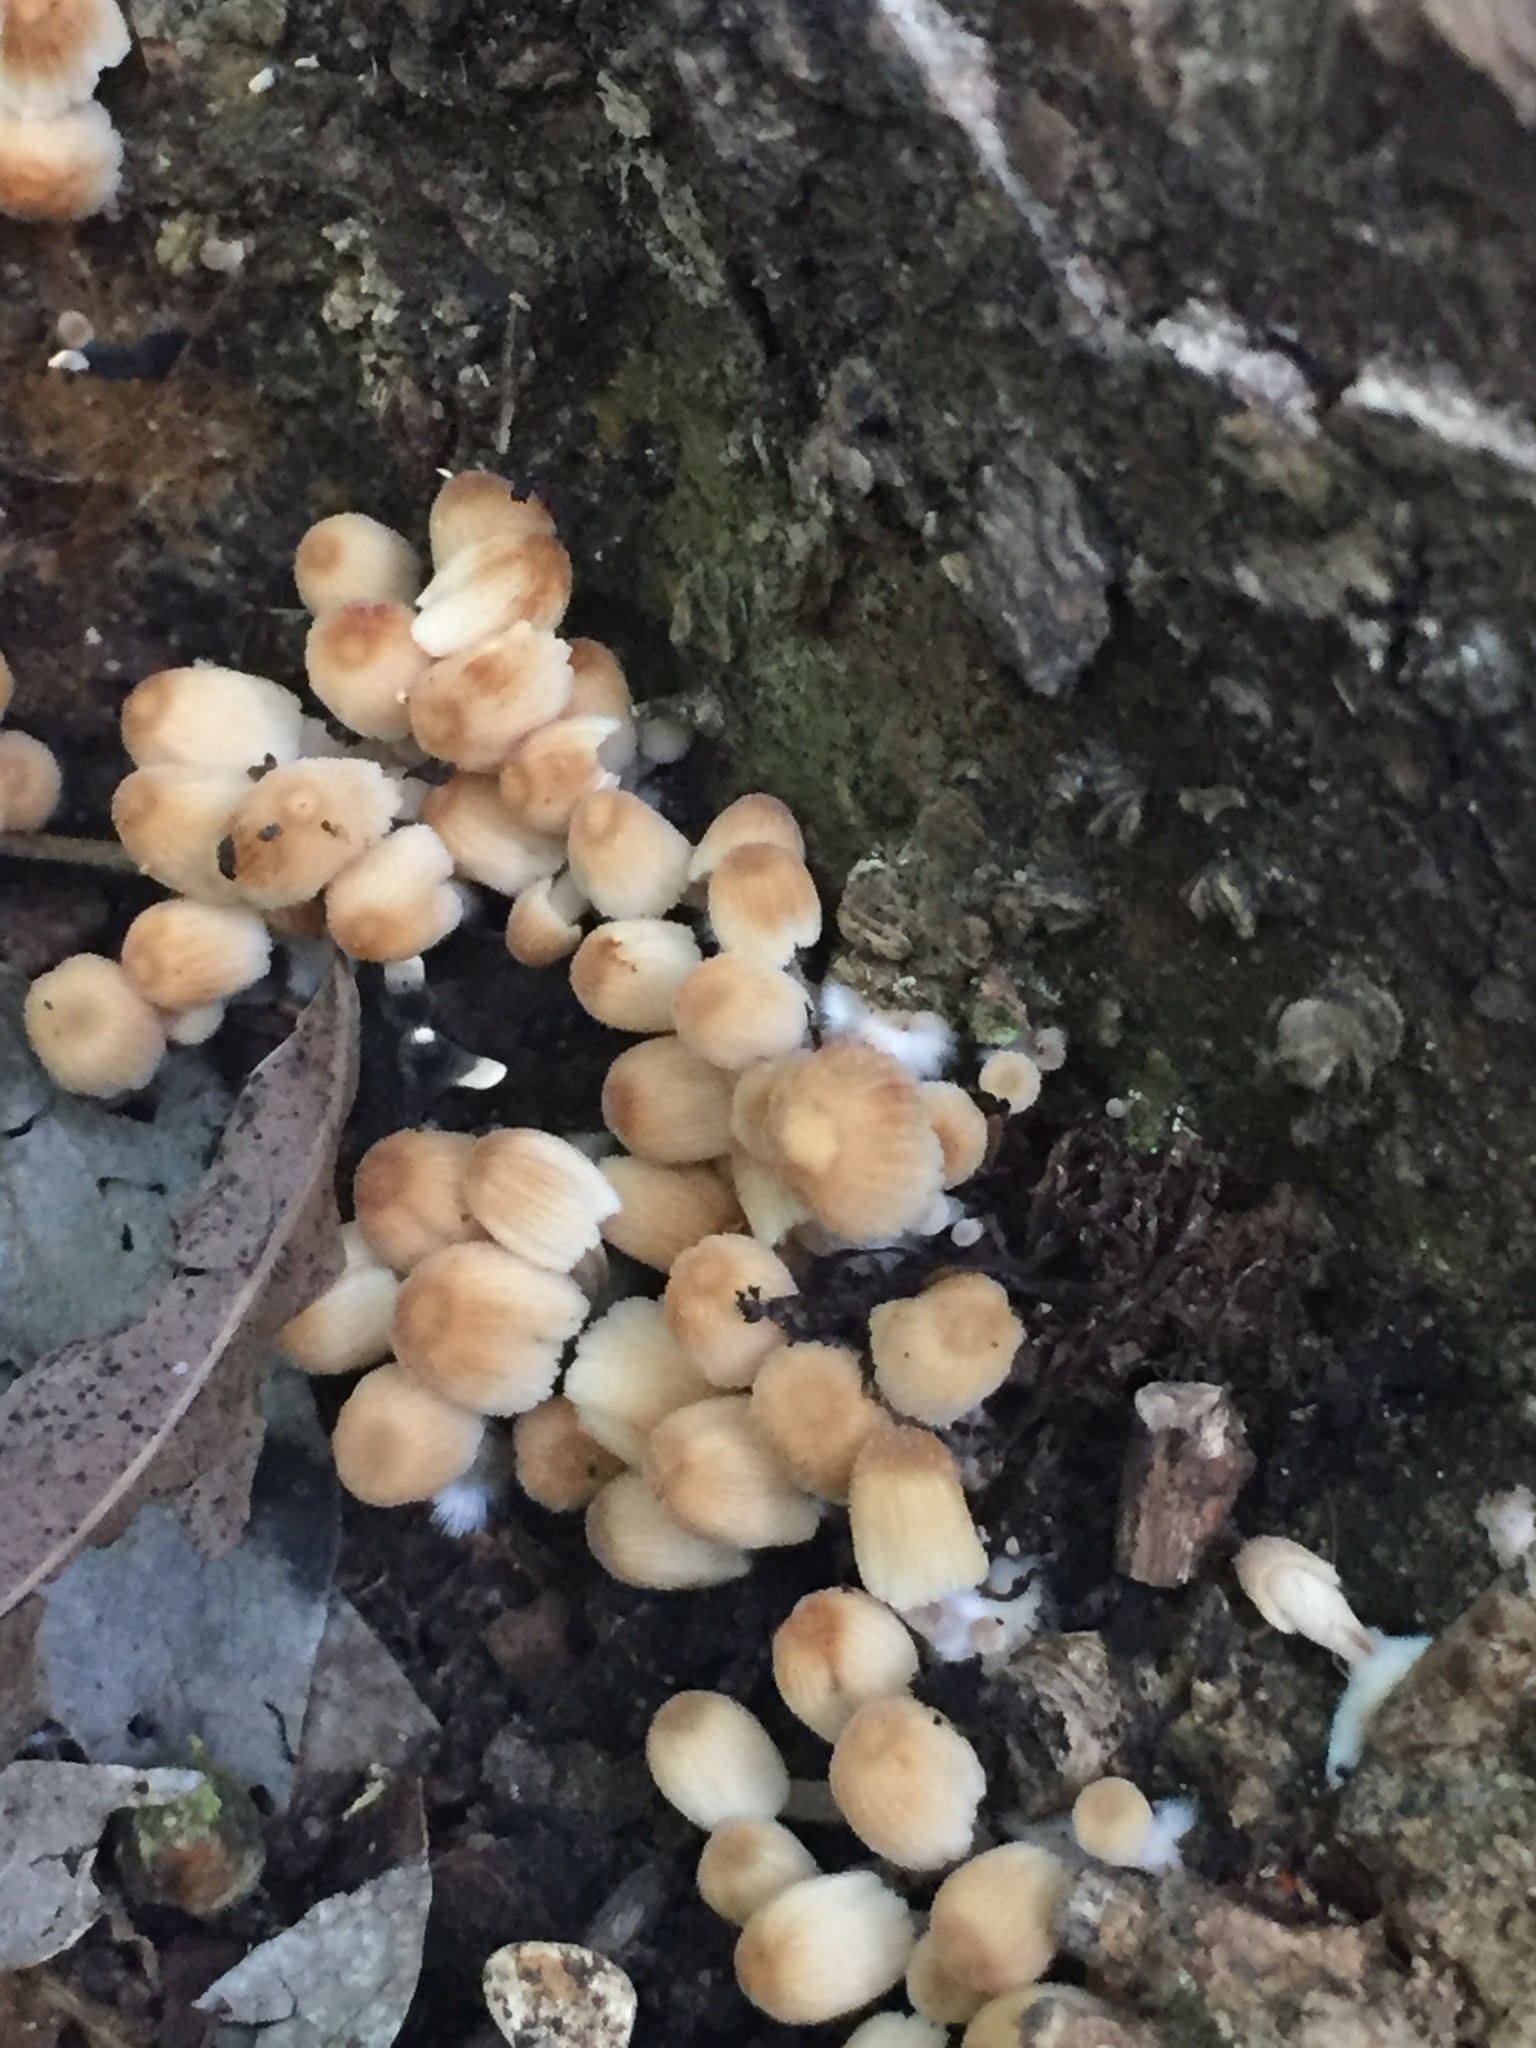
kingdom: Fungi
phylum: Basidiomycota
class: Agaricomycetes
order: Agaricales
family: Psathyrellaceae
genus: Coprinopsis
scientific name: Coprinopsis atramentaria
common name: Common ink-cap
